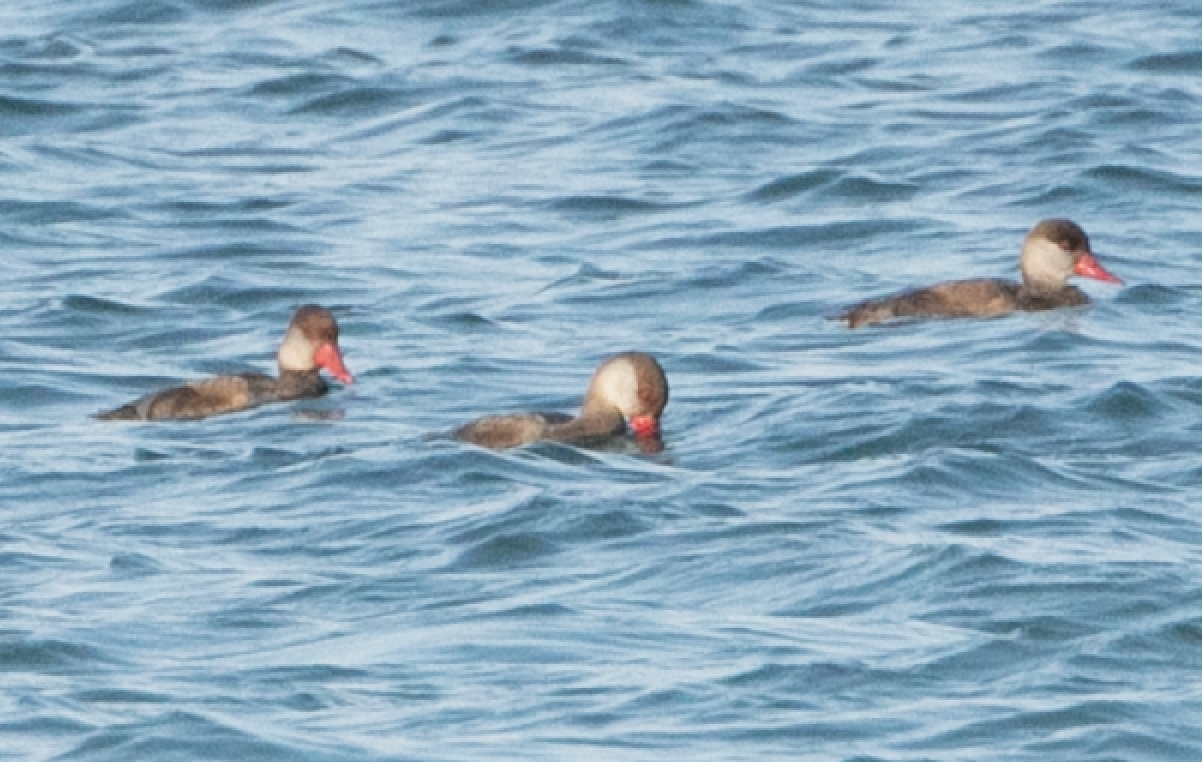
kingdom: Animalia
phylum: Chordata
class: Aves
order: Anseriformes
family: Anatidae
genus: Netta
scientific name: Netta rufina
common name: Red-crested pochard
